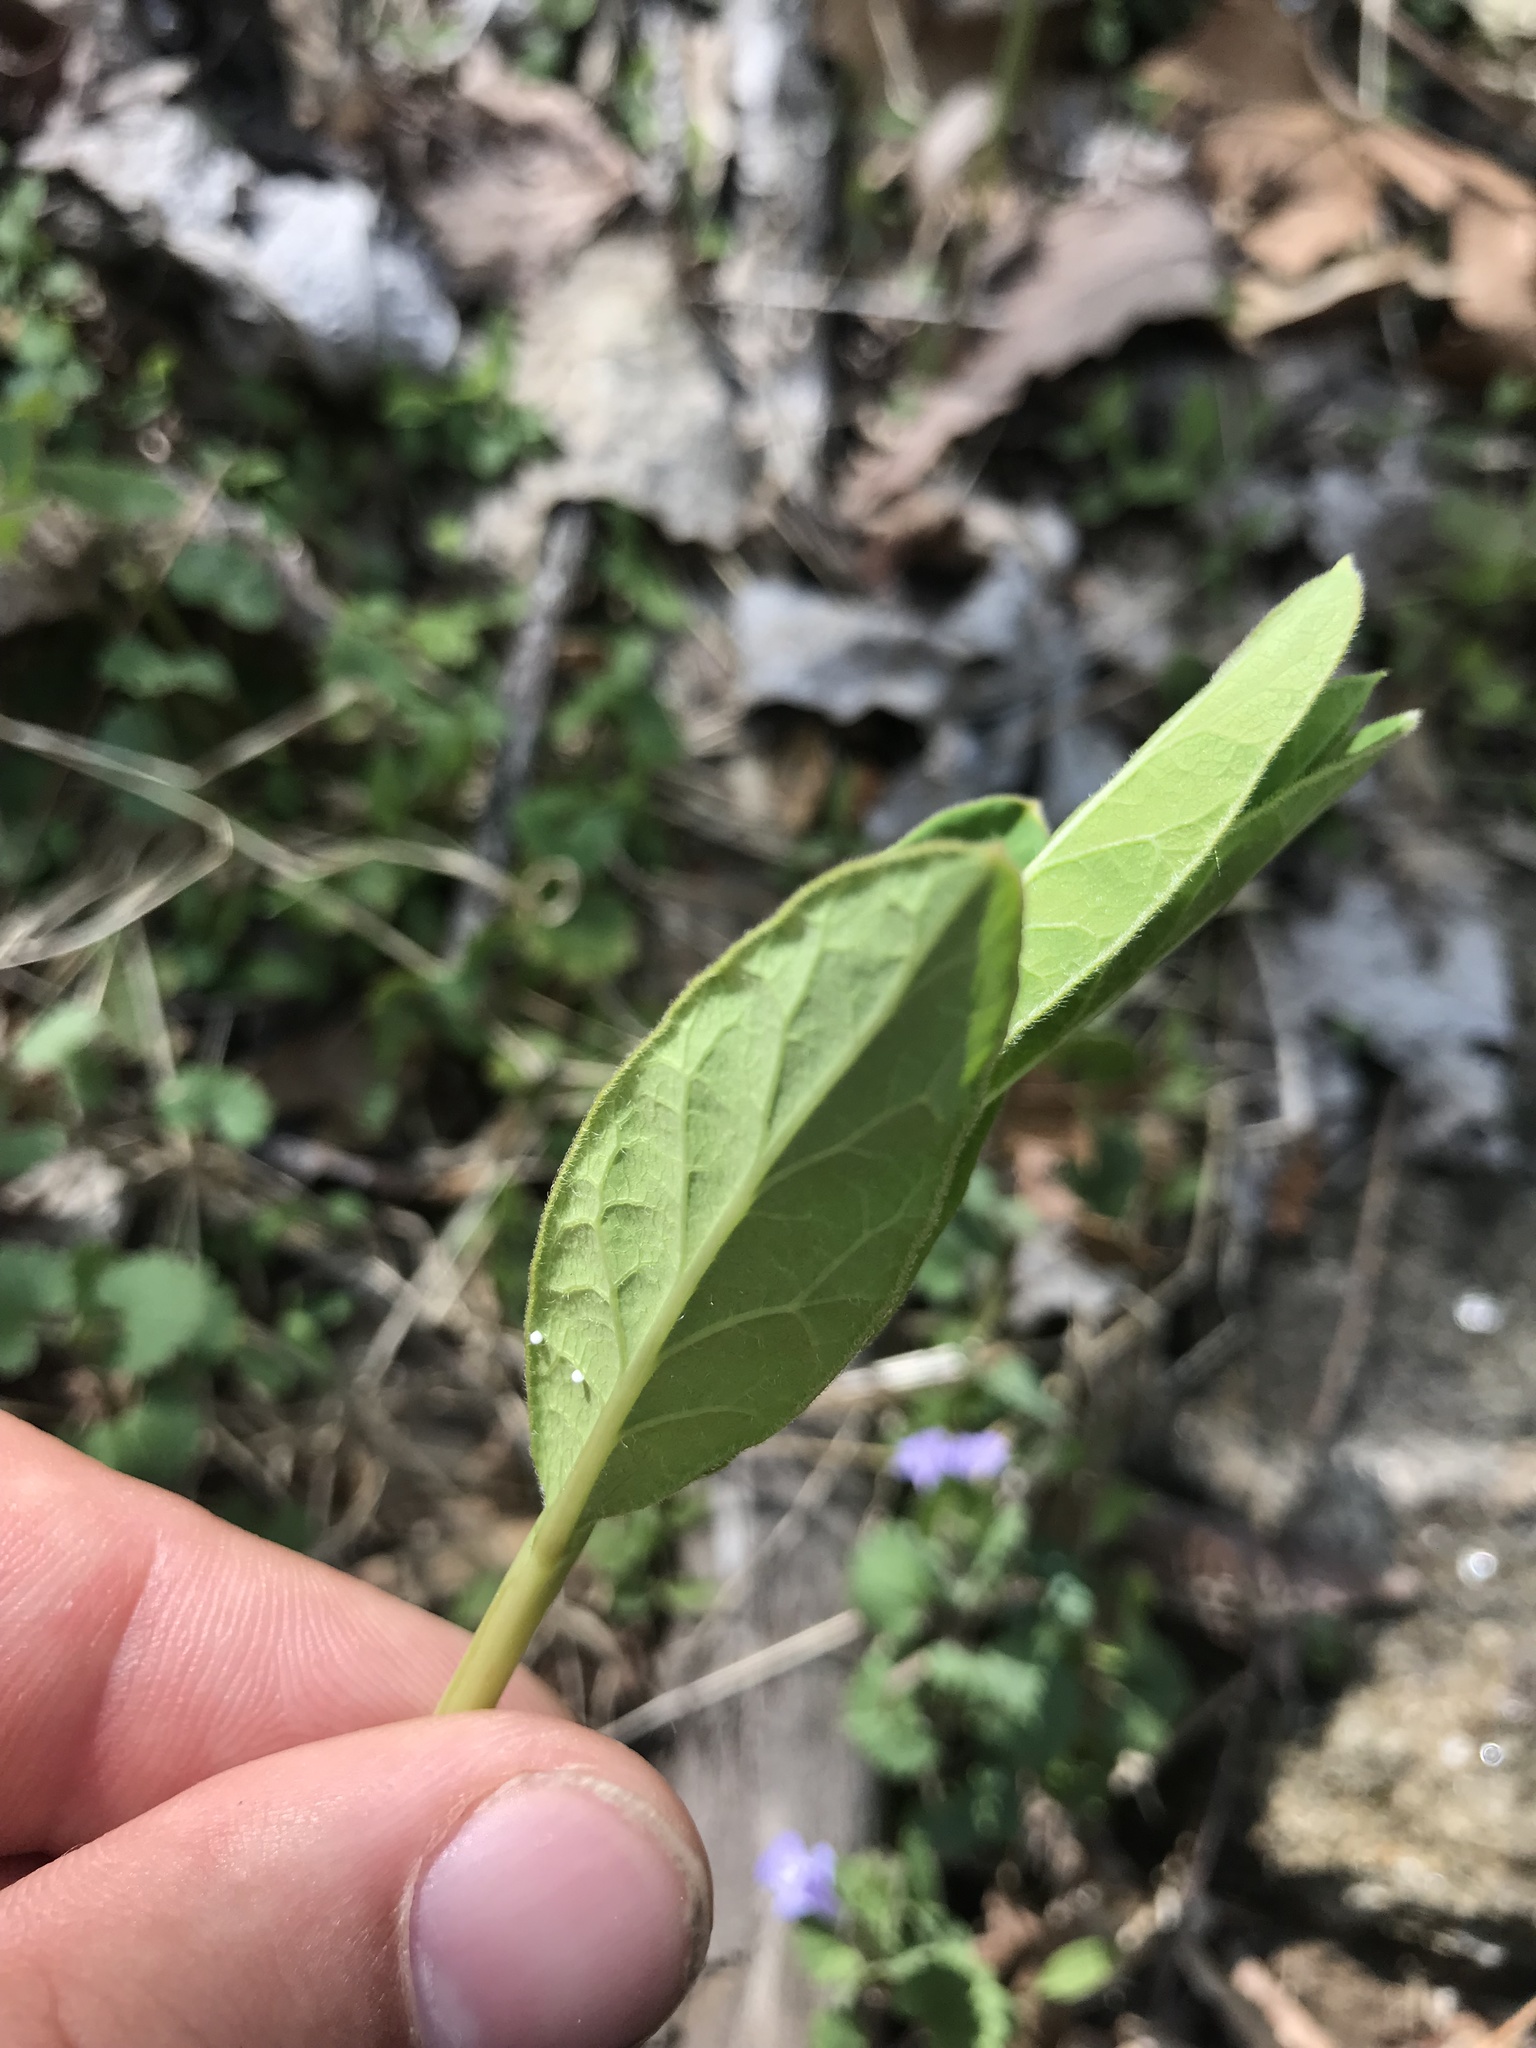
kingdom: Plantae
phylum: Tracheophyta
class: Magnoliopsida
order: Gentianales
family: Apocynaceae
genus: Asclepias
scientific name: Asclepias syriaca
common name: Common milkweed
